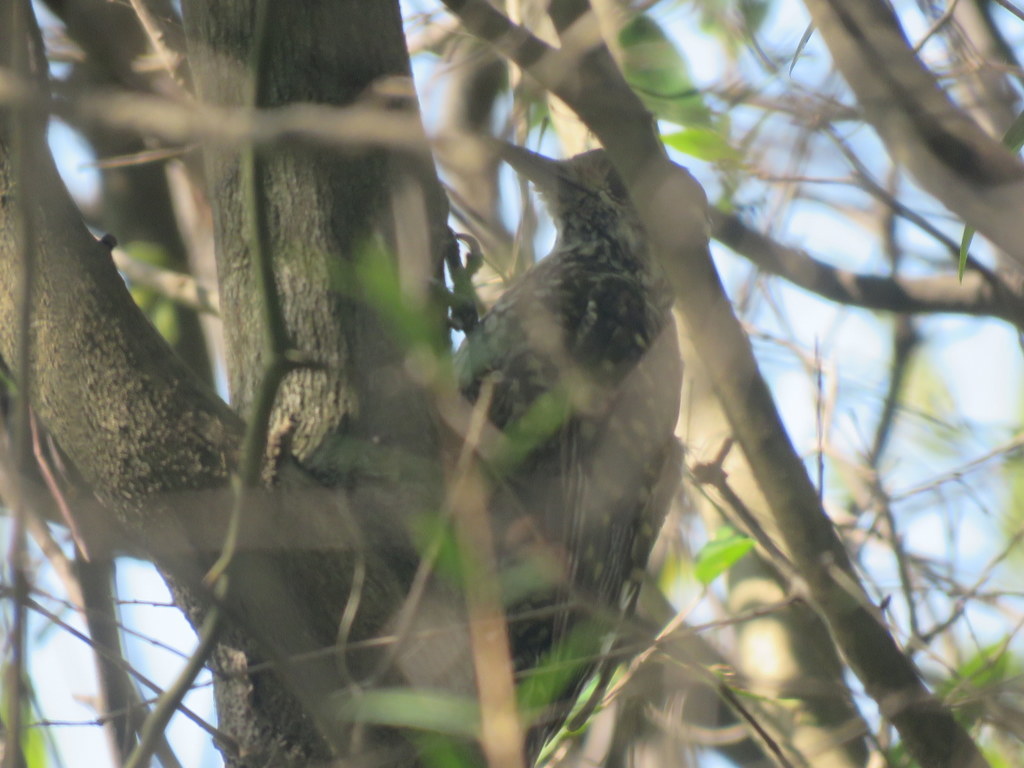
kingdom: Animalia
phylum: Chordata
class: Aves
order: Piciformes
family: Picidae
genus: Veniliornis
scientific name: Veniliornis spilogaster
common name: White-spotted woodpecker
